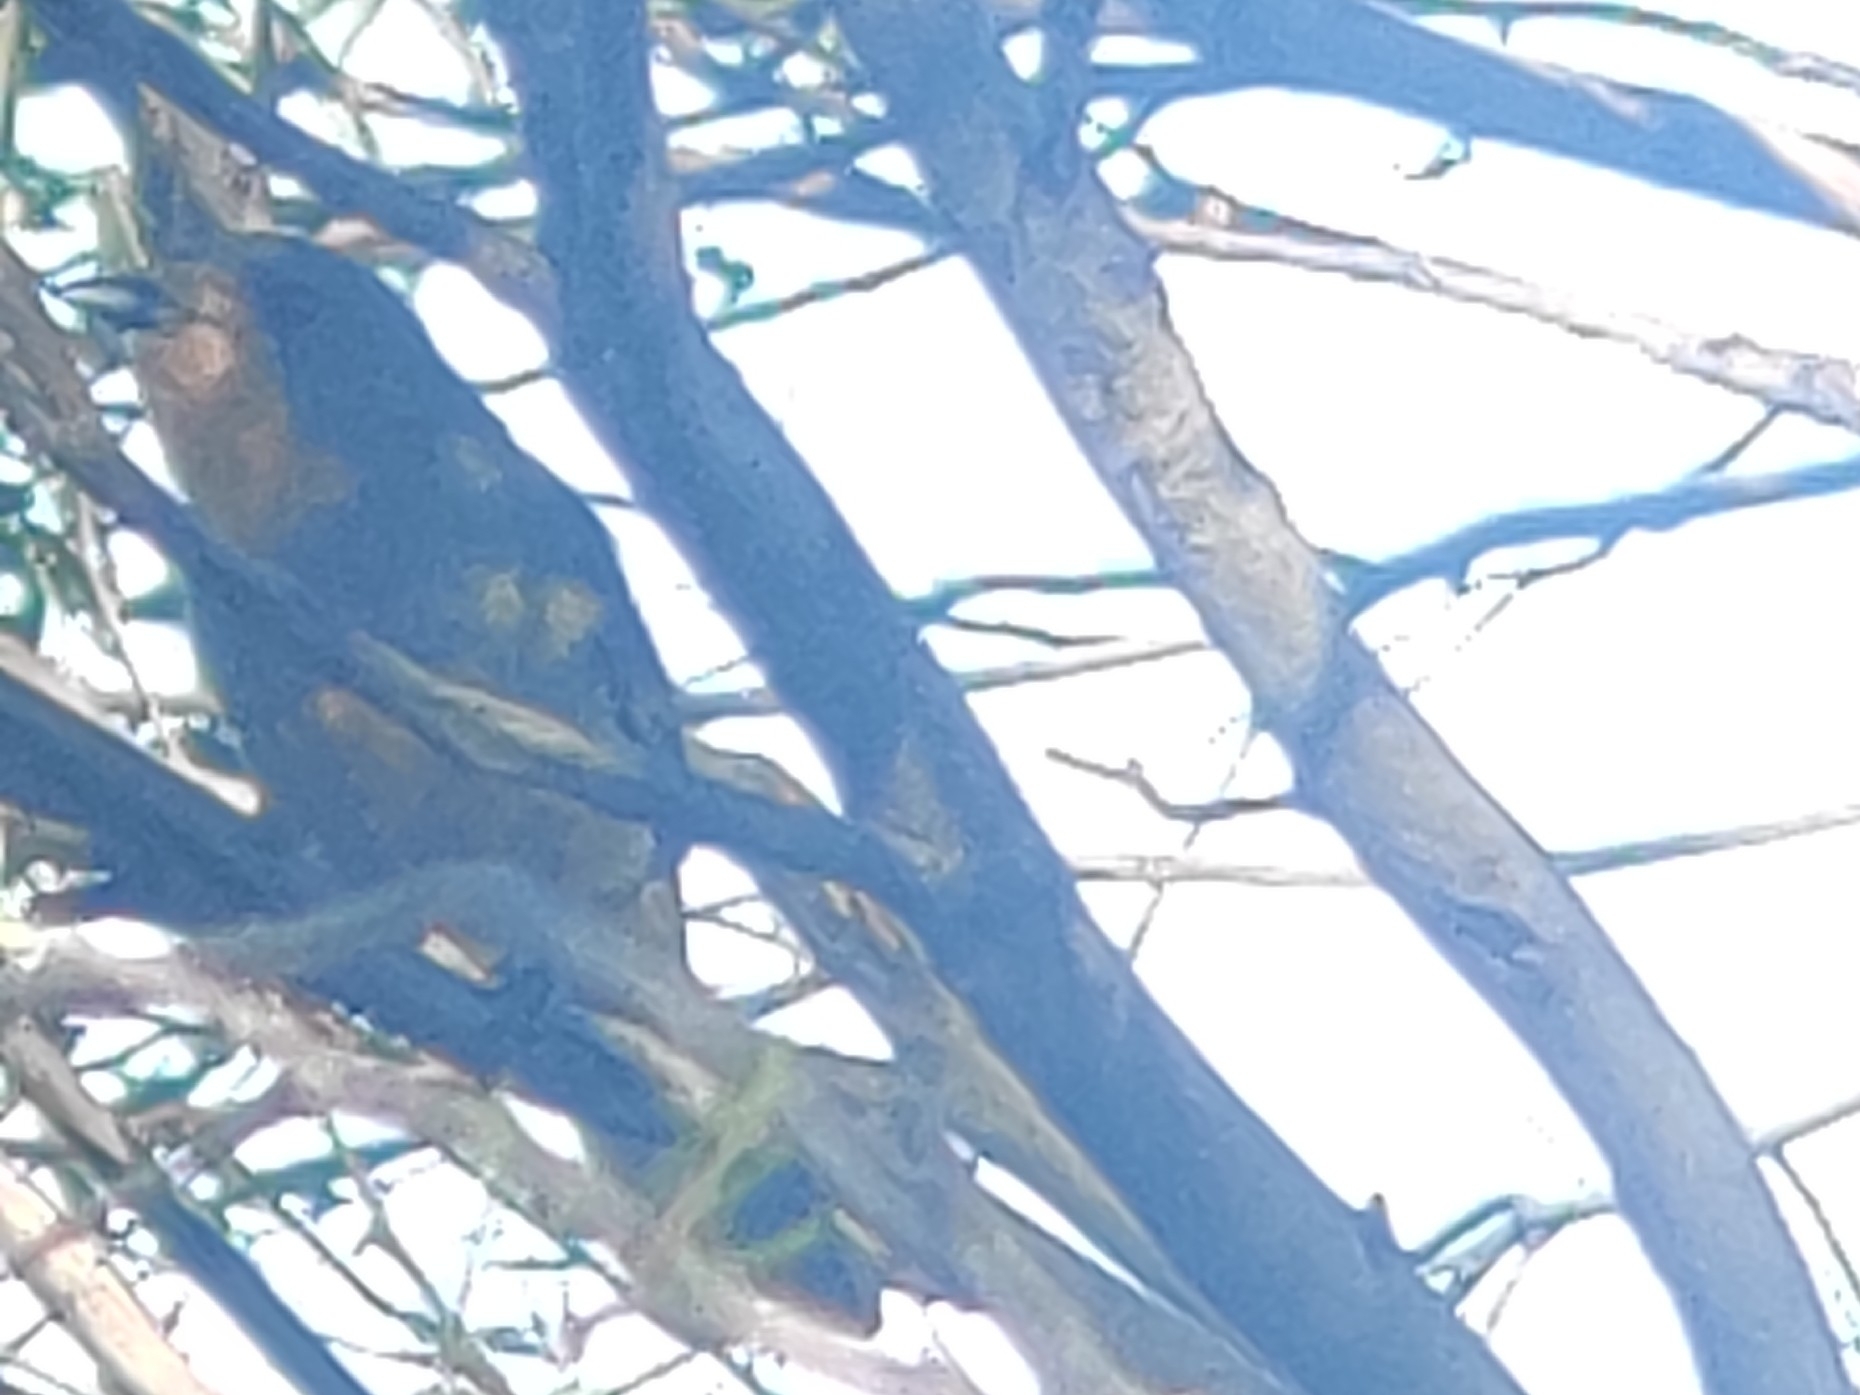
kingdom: Animalia
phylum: Chordata
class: Aves
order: Passeriformes
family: Pachycephalidae
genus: Pachycephala
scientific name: Pachycephala rufogularis
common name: Red-lored whistler
